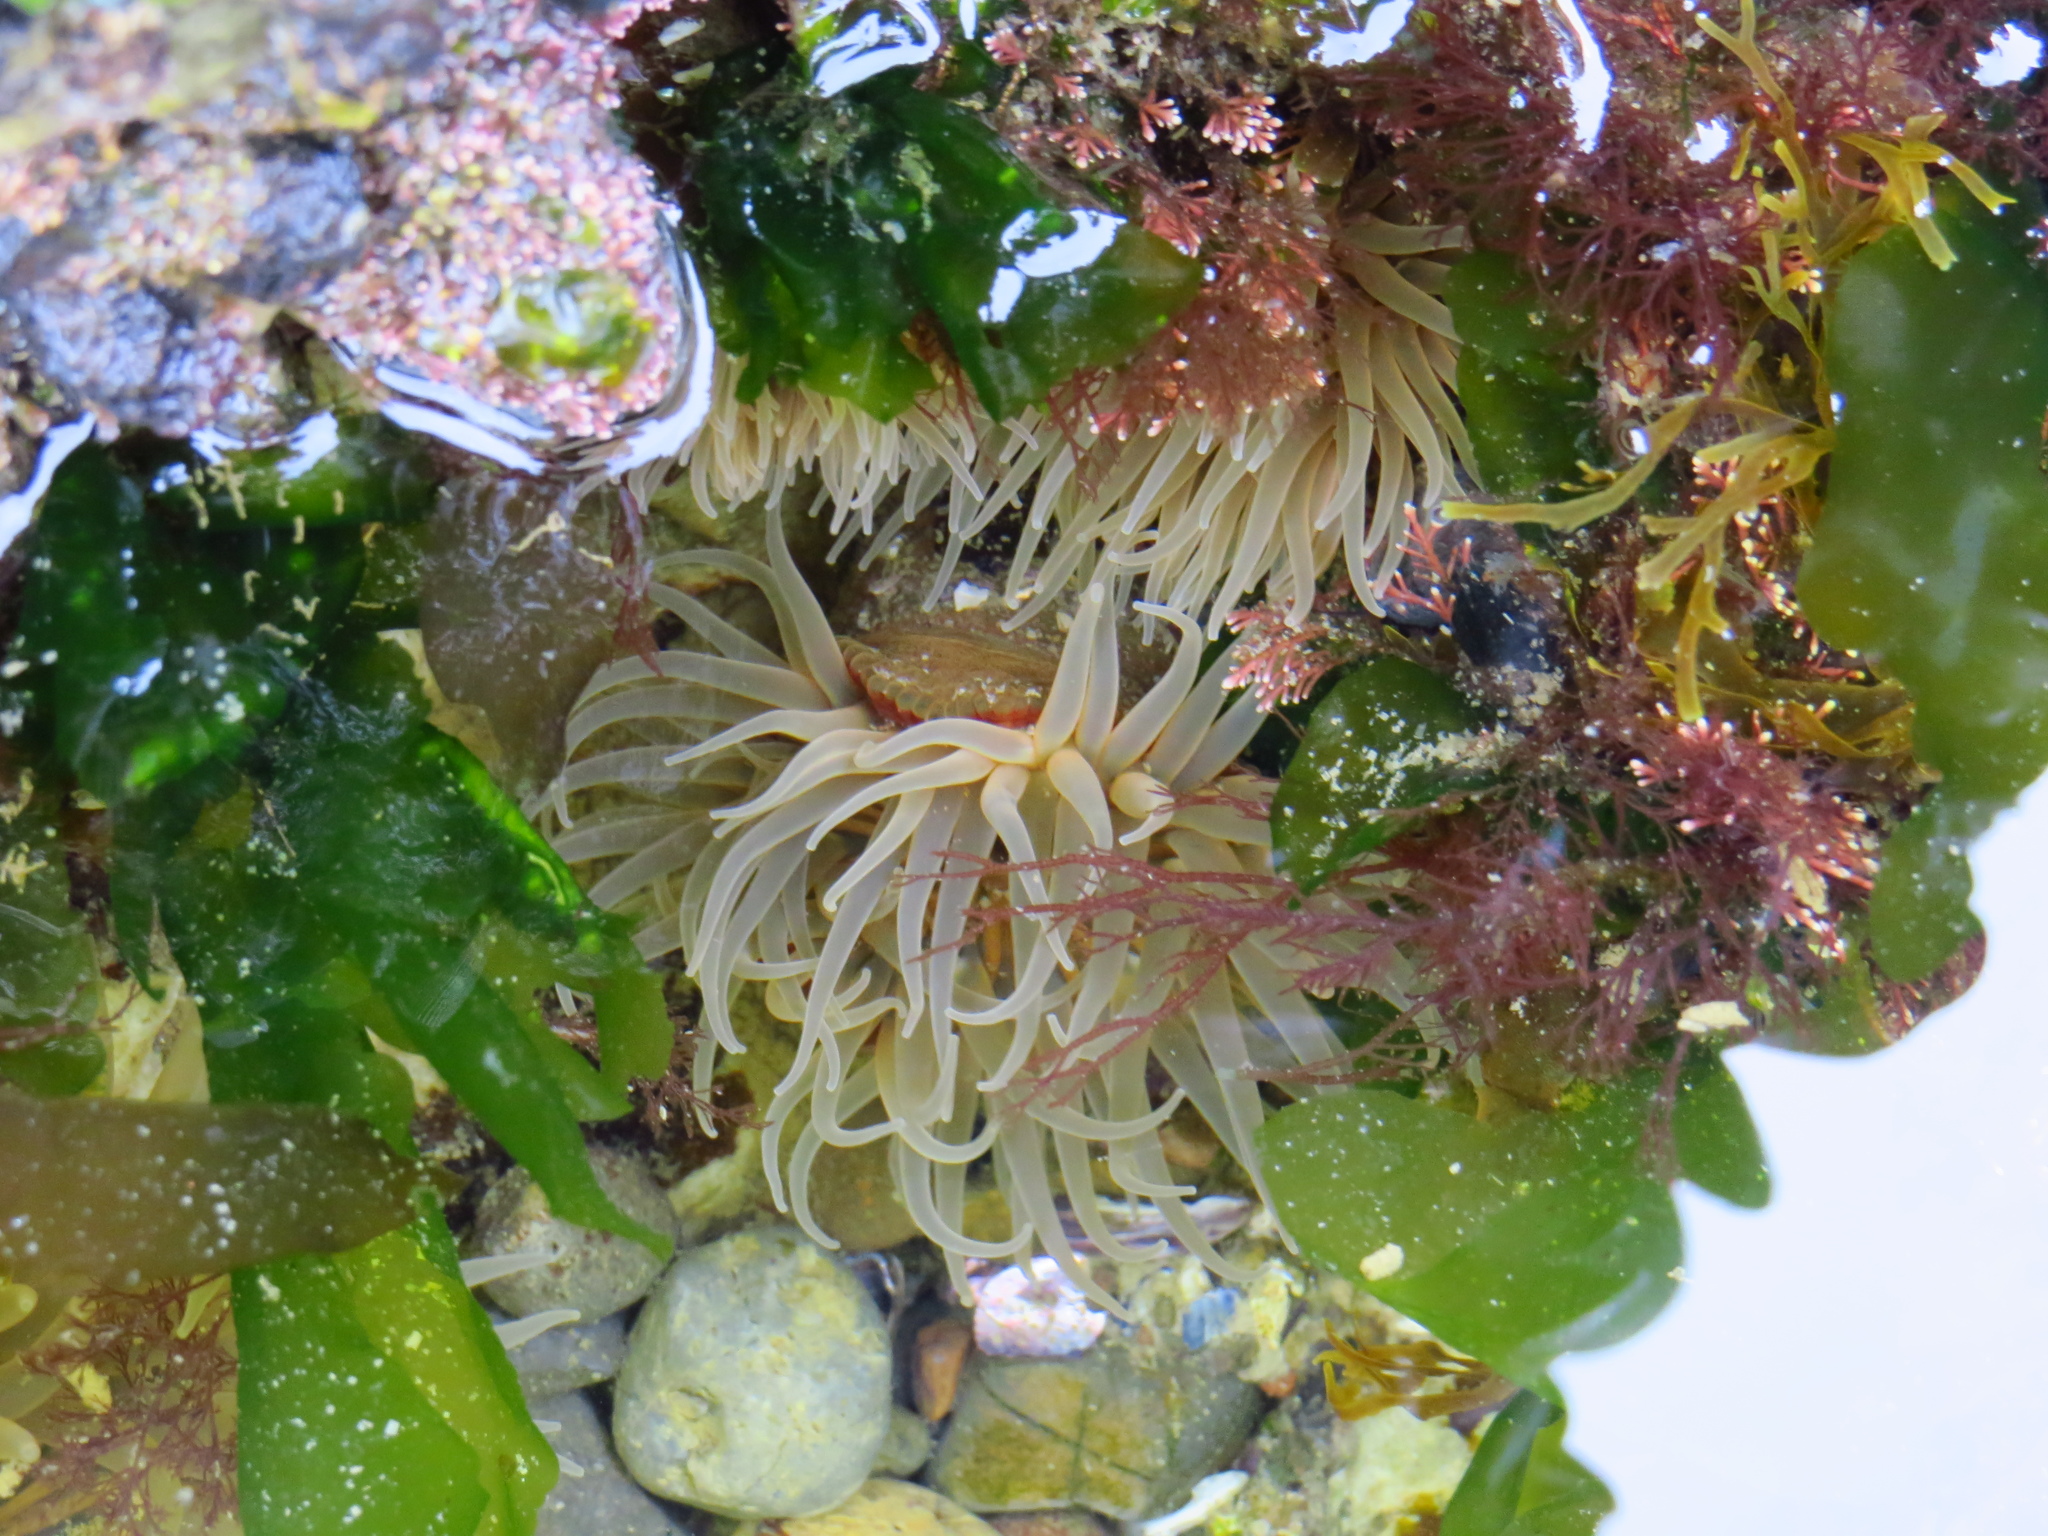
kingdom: Animalia
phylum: Cnidaria
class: Anthozoa
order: Actiniaria
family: Actiniidae
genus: Parabunodactis
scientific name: Parabunodactis imperfecta
